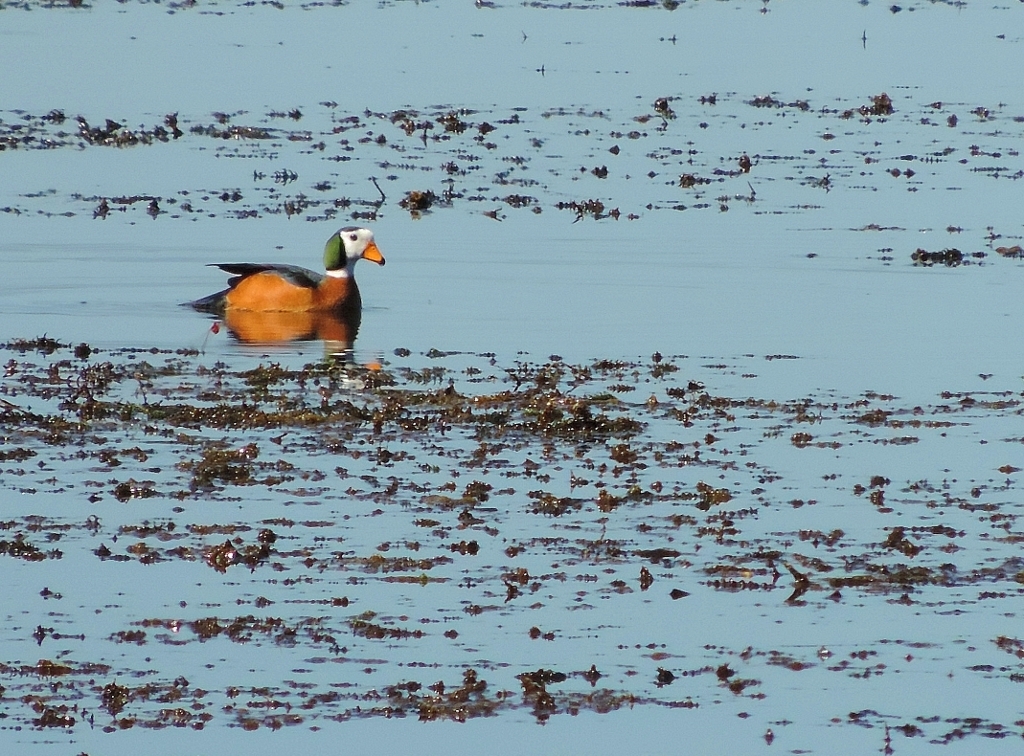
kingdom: Animalia
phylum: Chordata
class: Aves
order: Anseriformes
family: Anatidae
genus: Nettapus
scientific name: Nettapus auritus
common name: African pygmy-goose
